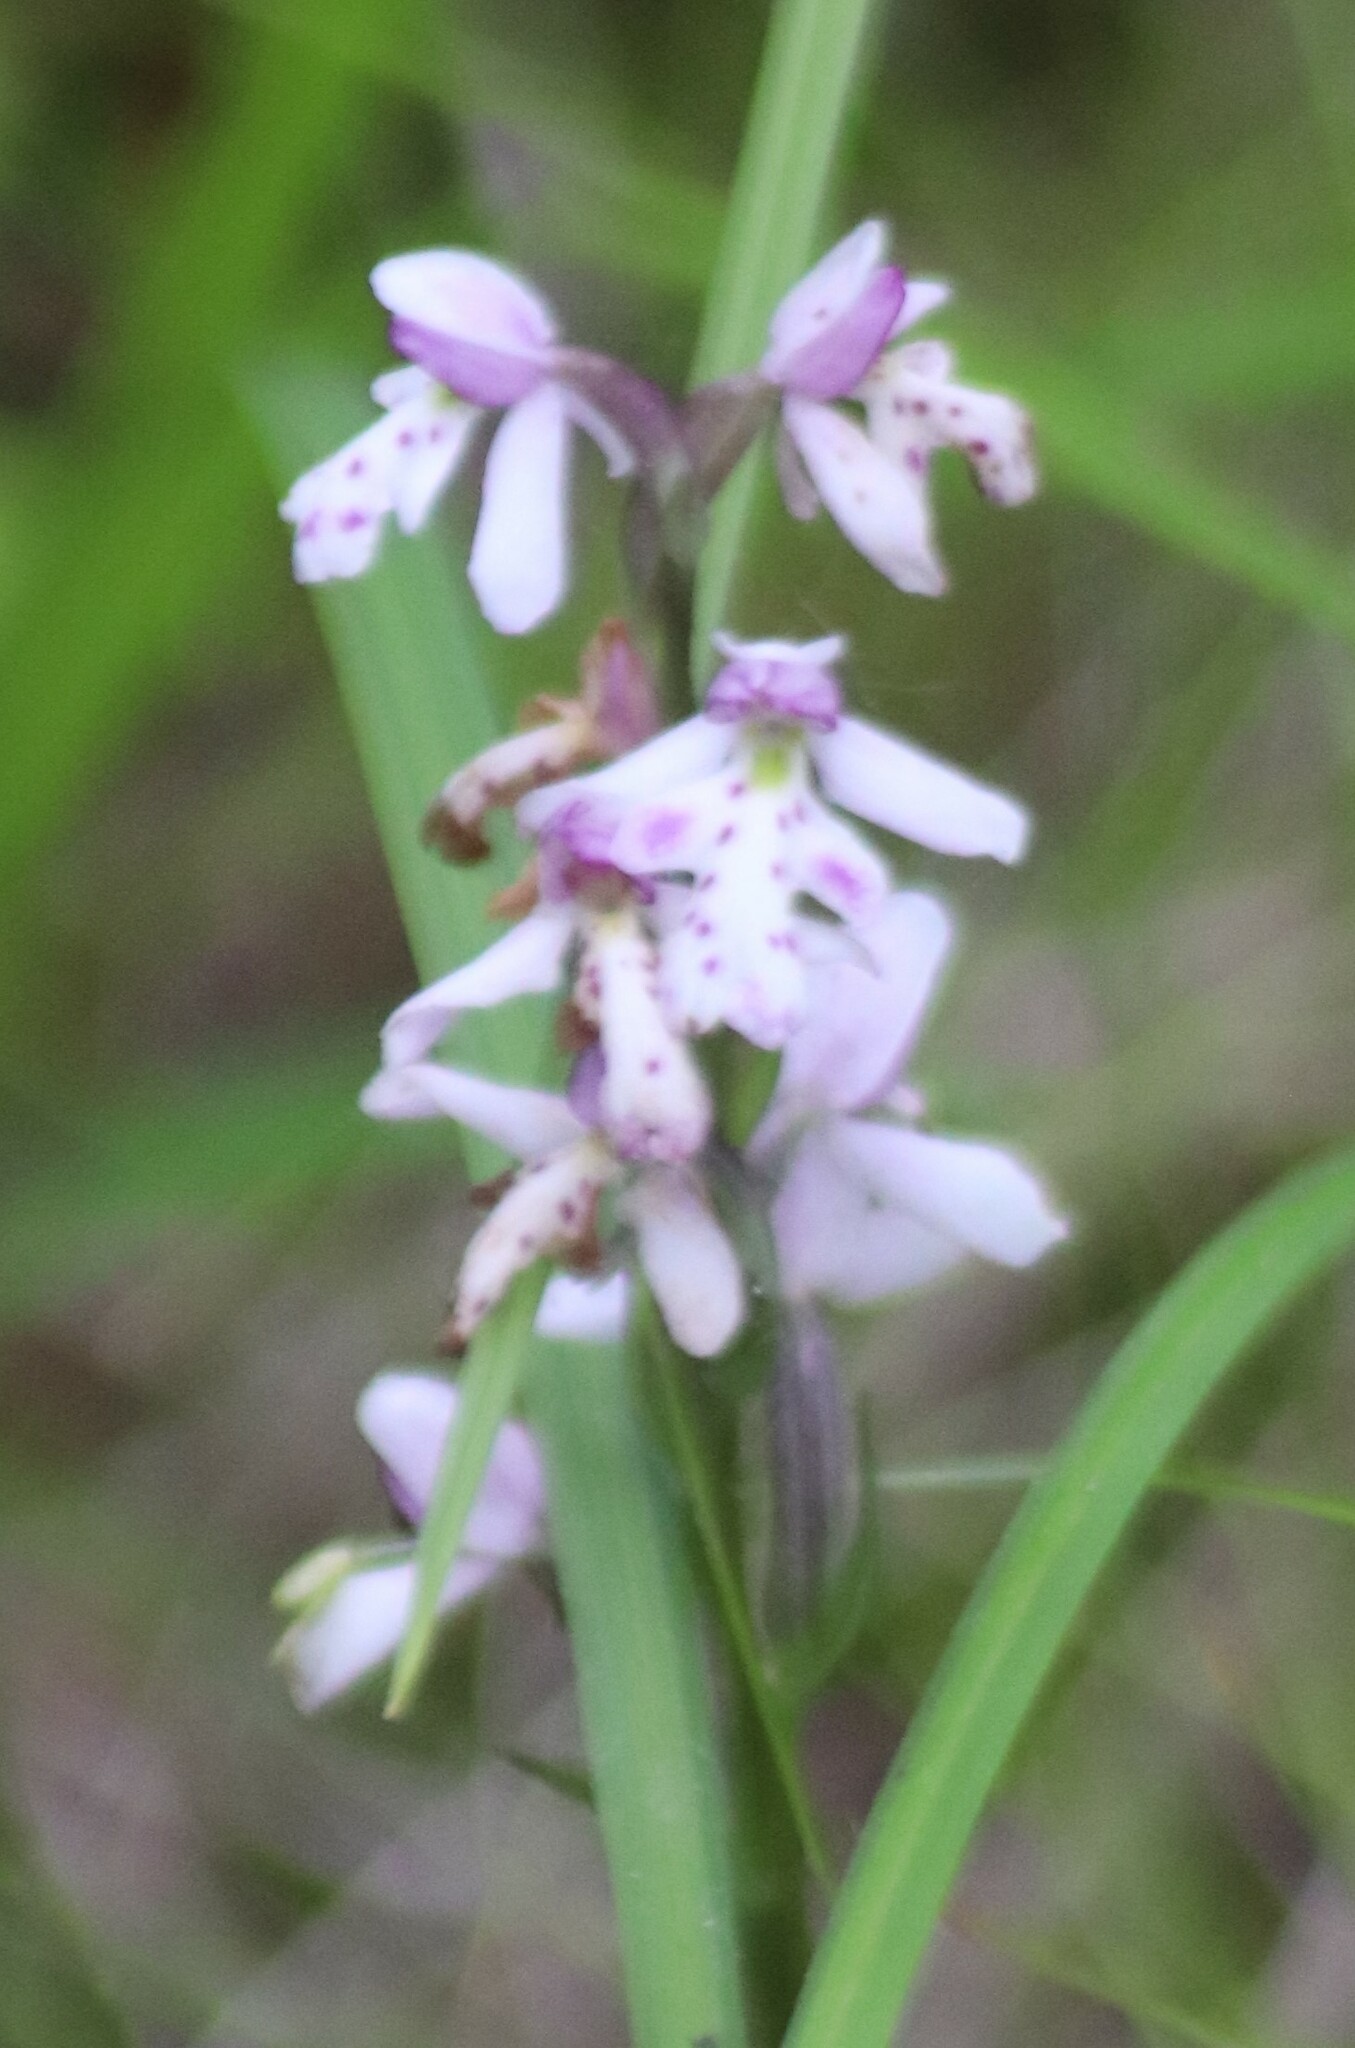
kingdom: Plantae
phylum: Tracheophyta
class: Liliopsida
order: Asparagales
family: Orchidaceae
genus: Galearis
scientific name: Galearis rotundifolia
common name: One-leaved orchis
